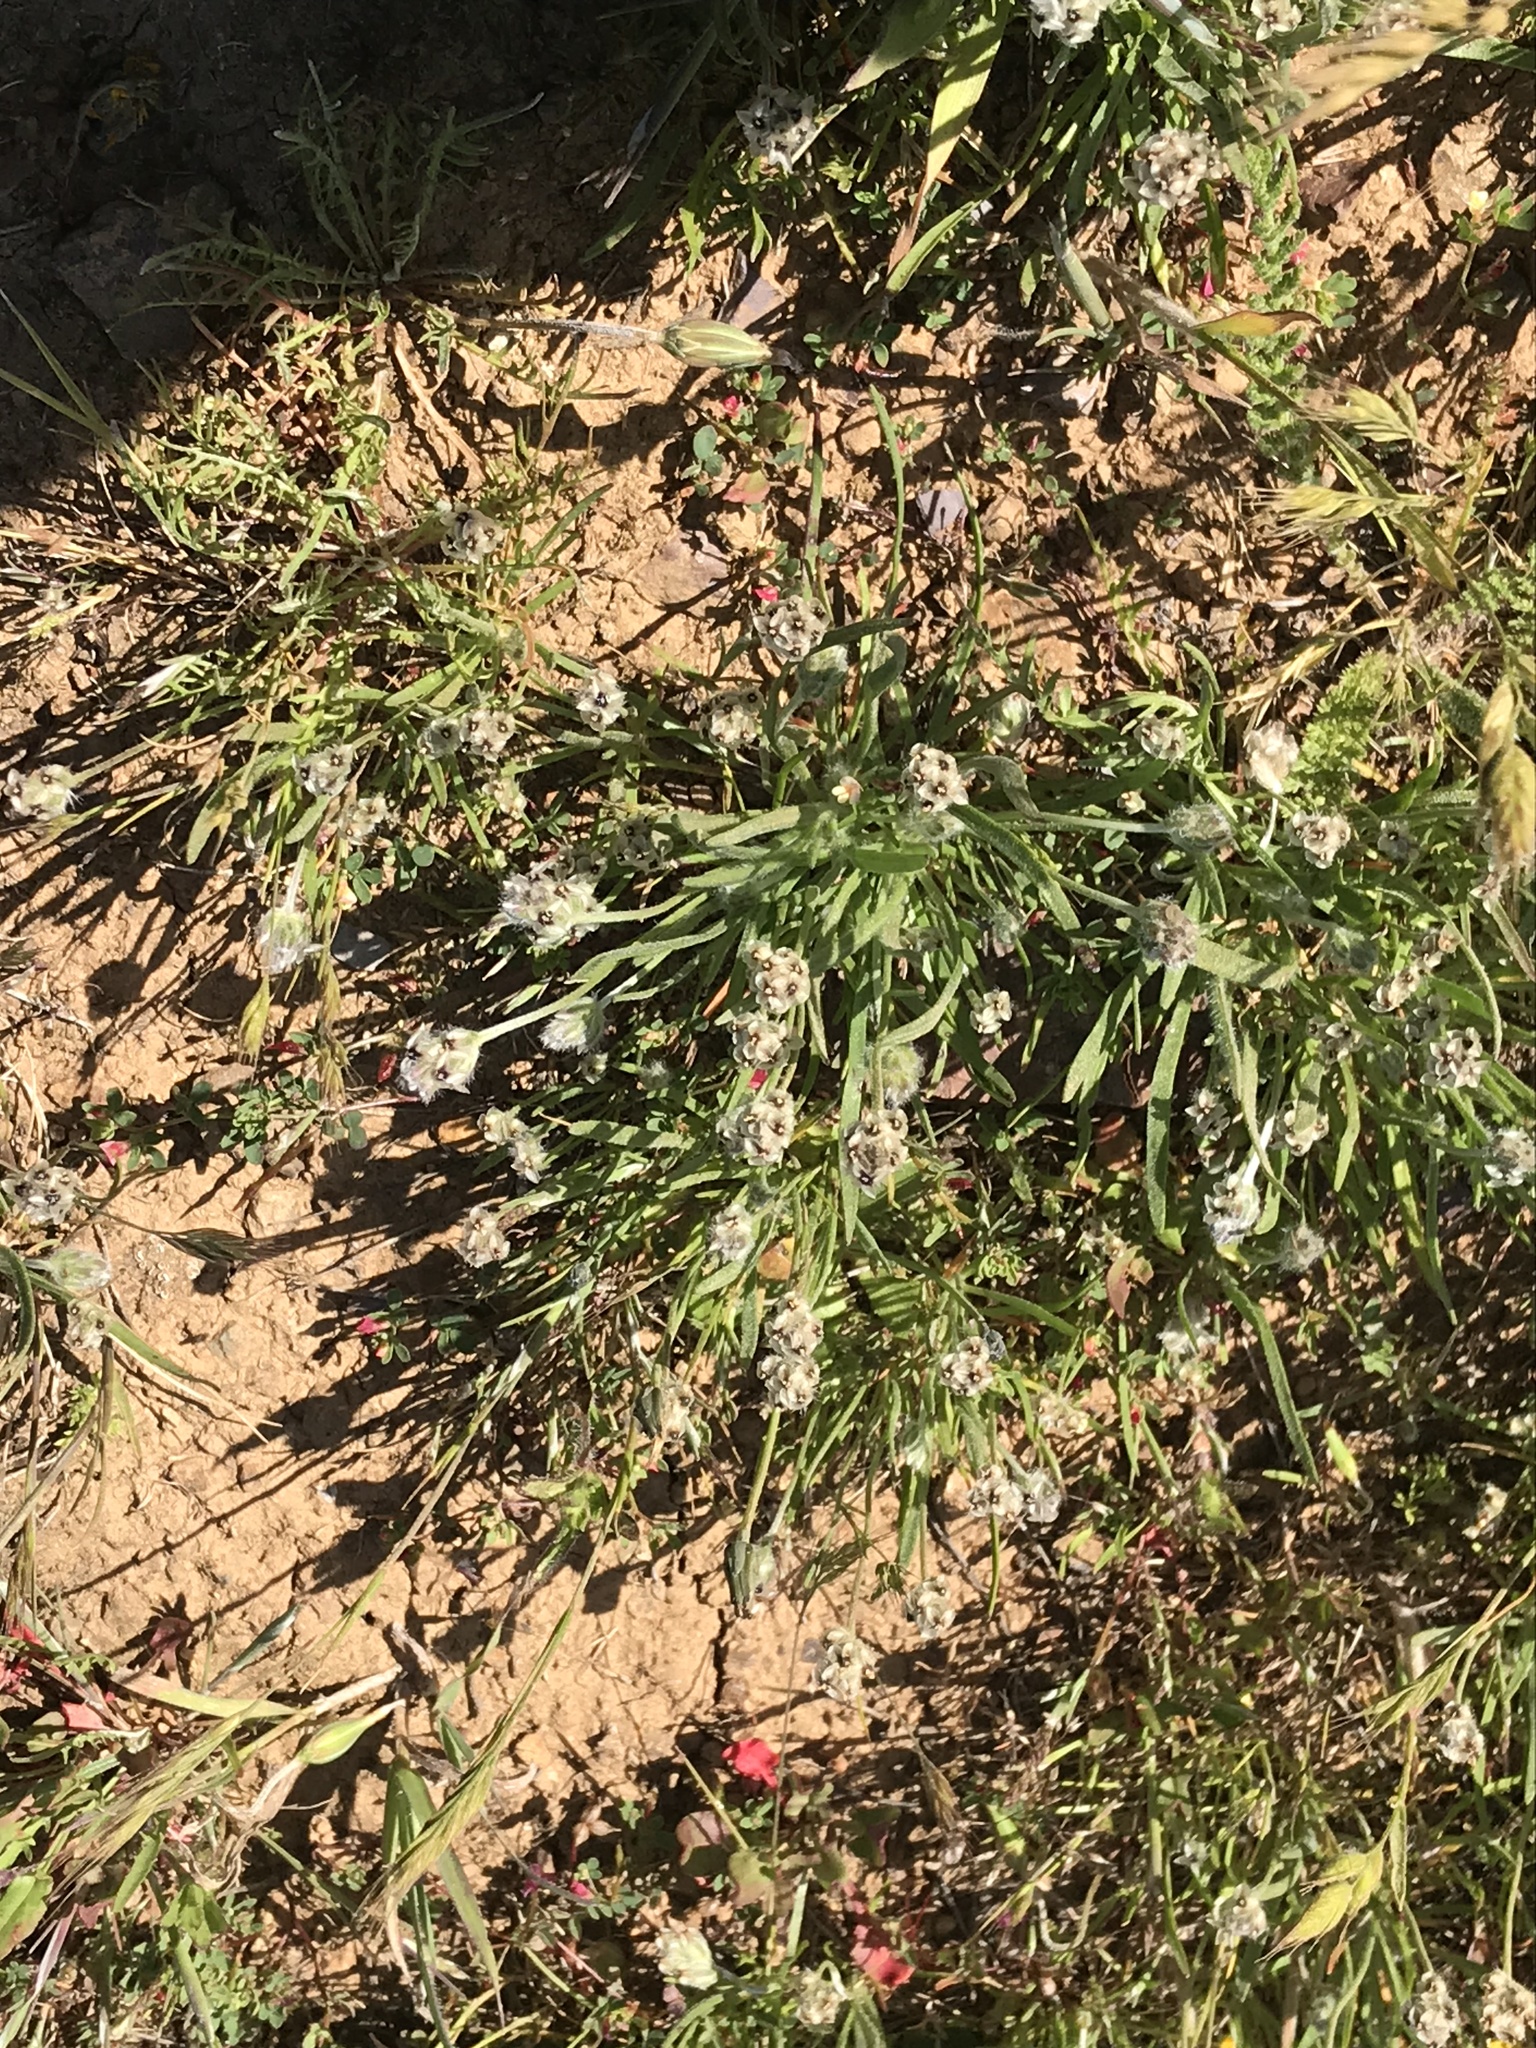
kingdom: Plantae
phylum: Tracheophyta
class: Magnoliopsida
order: Lamiales
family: Plantaginaceae
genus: Plantago
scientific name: Plantago erecta
